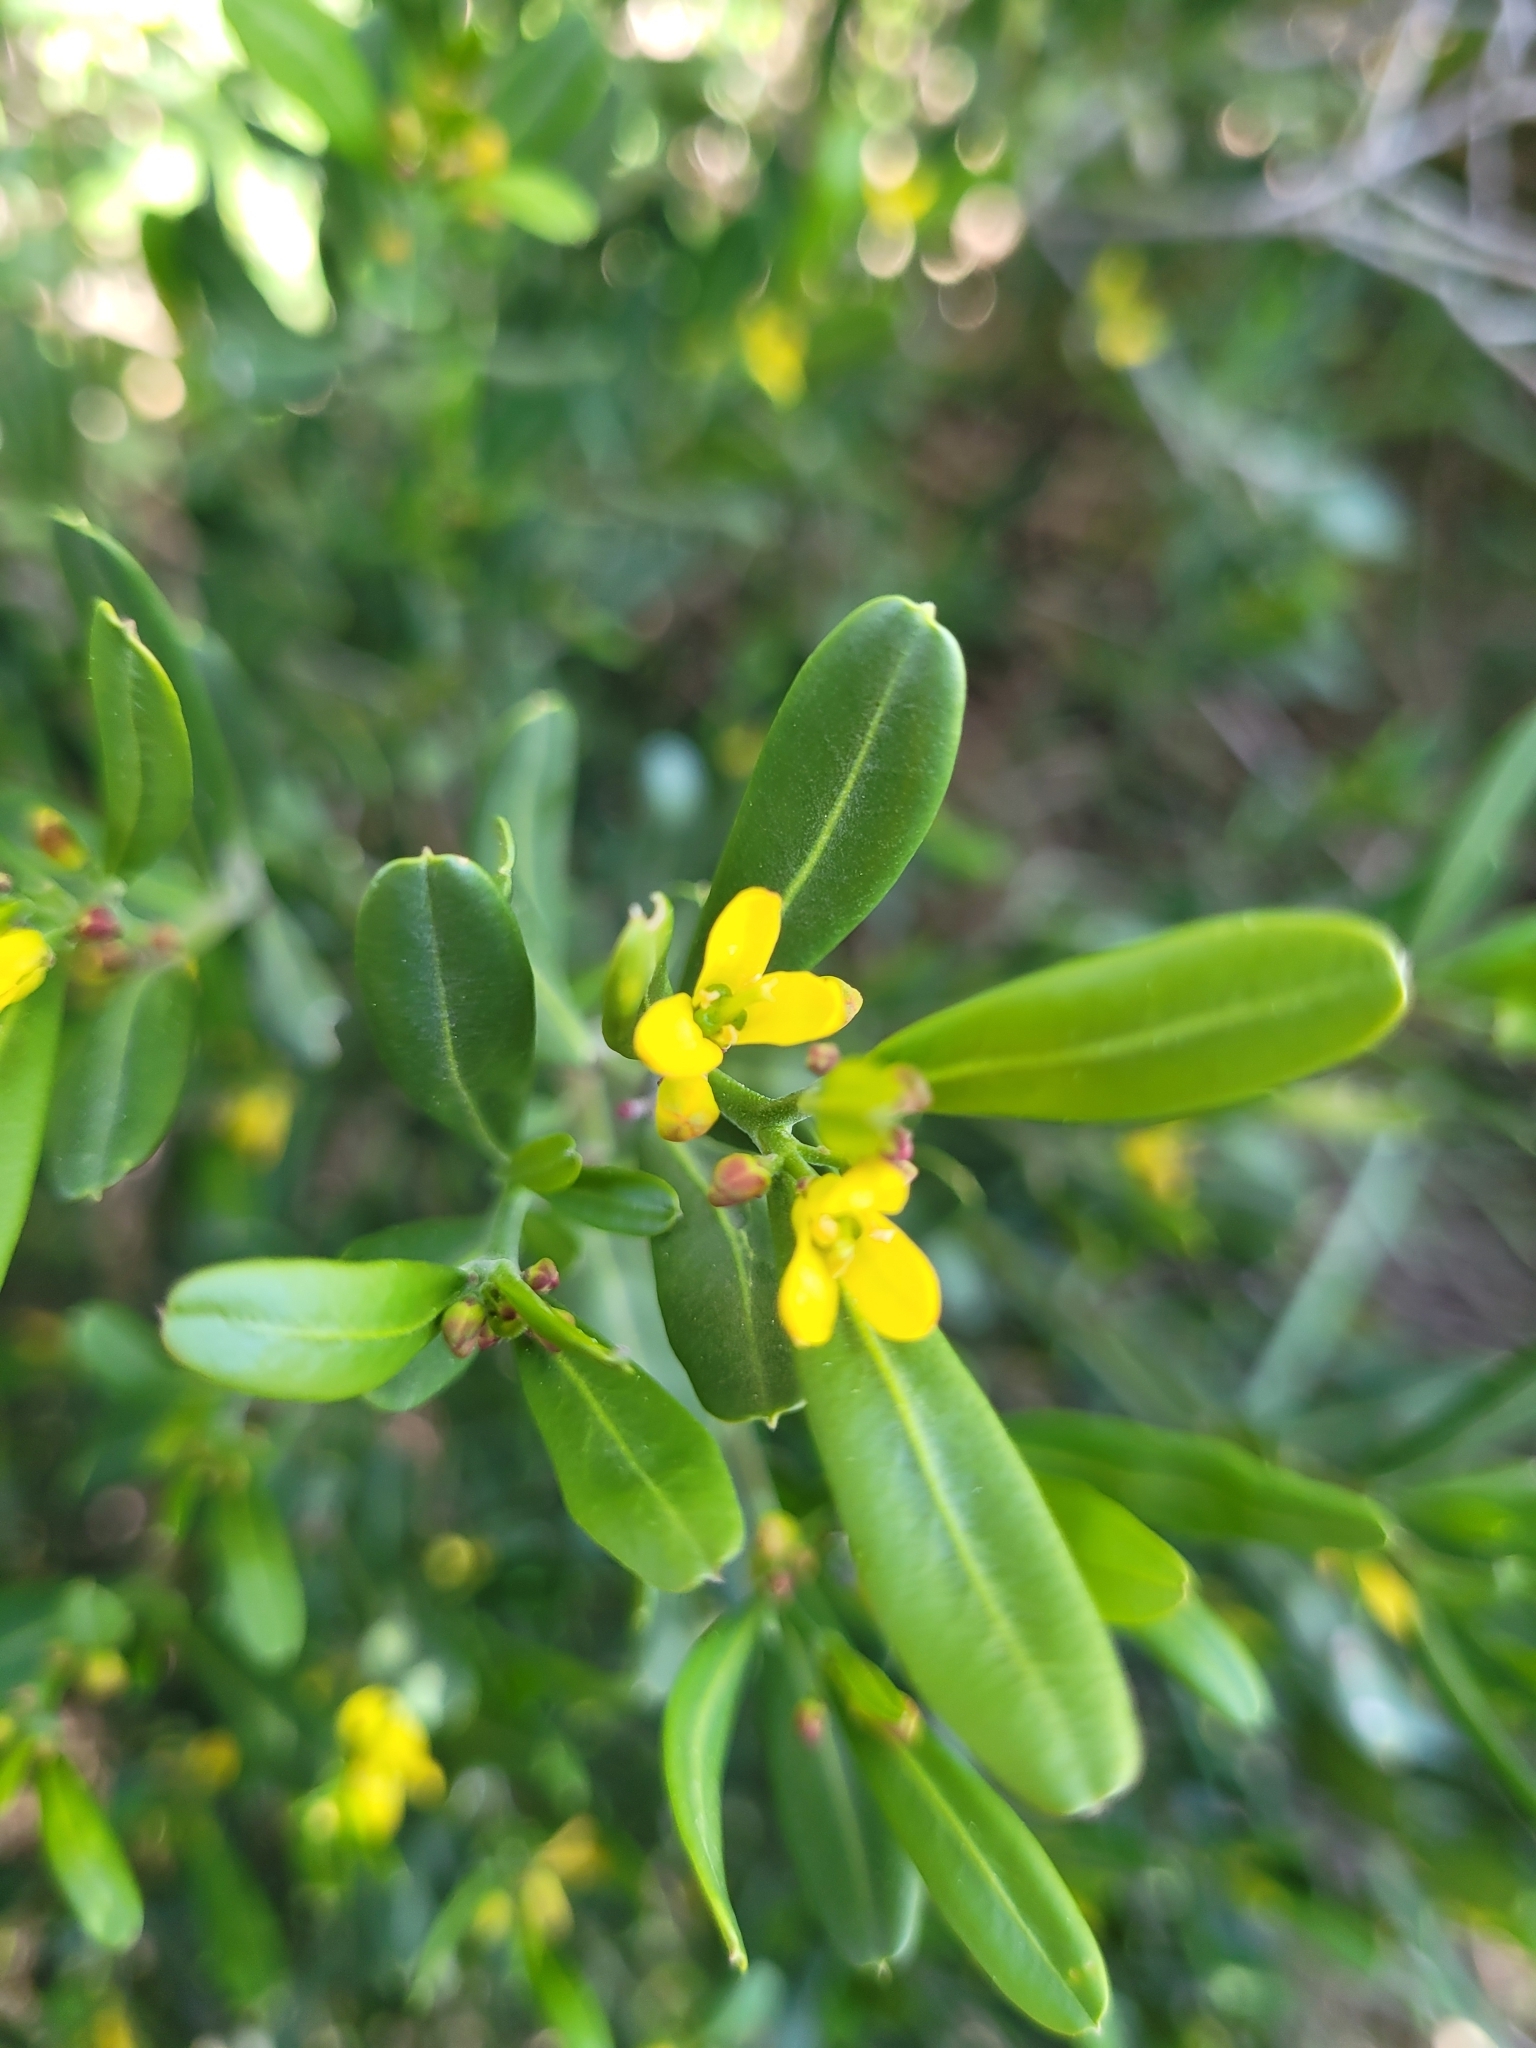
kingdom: Plantae
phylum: Tracheophyta
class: Magnoliopsida
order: Sapindales
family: Rutaceae
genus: Cneorum
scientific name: Cneorum tricoccon
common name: Spurge olive
